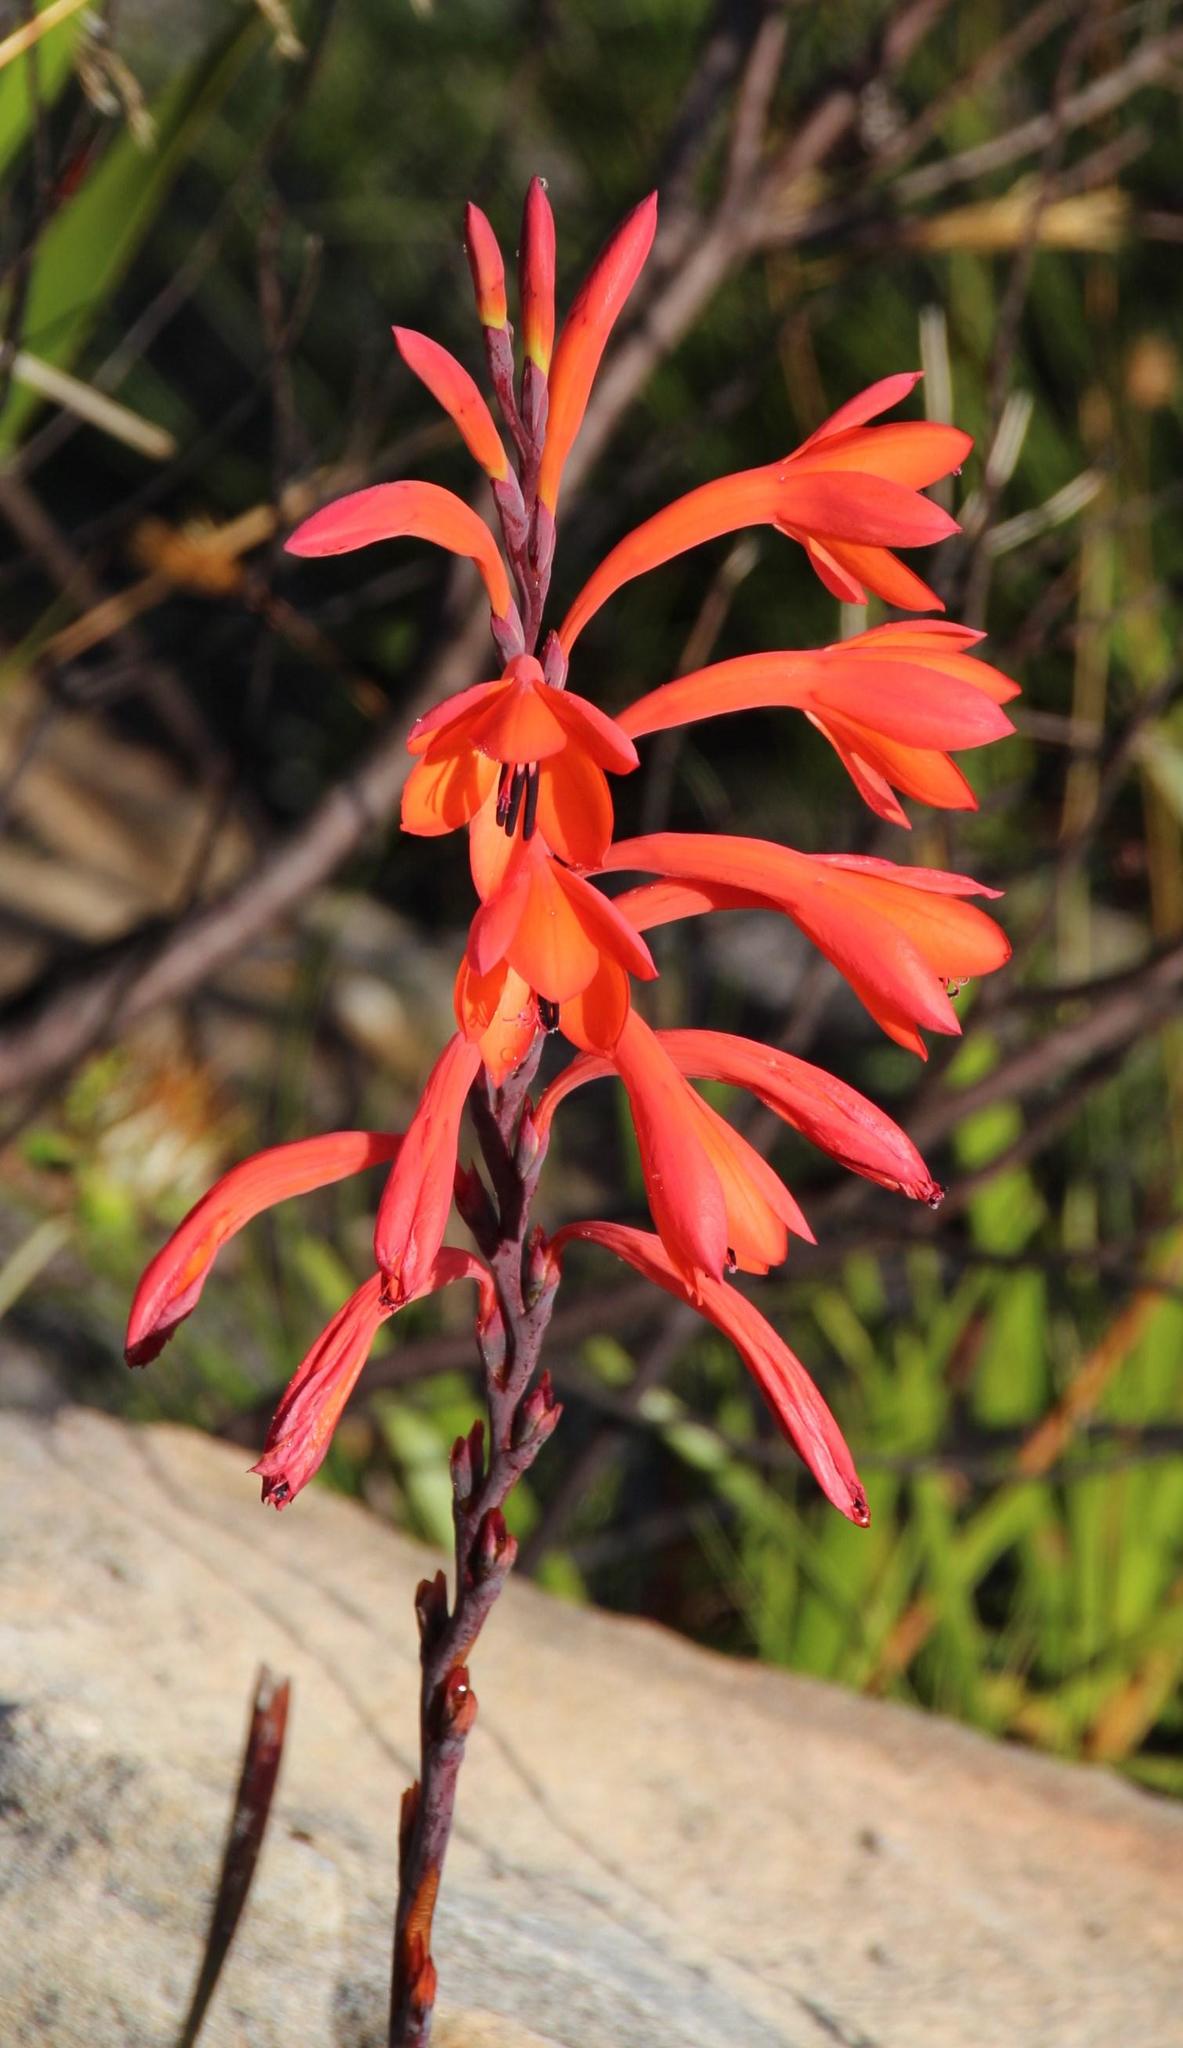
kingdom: Plantae
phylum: Tracheophyta
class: Liliopsida
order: Asparagales
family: Iridaceae
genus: Watsonia
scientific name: Watsonia tabularis
